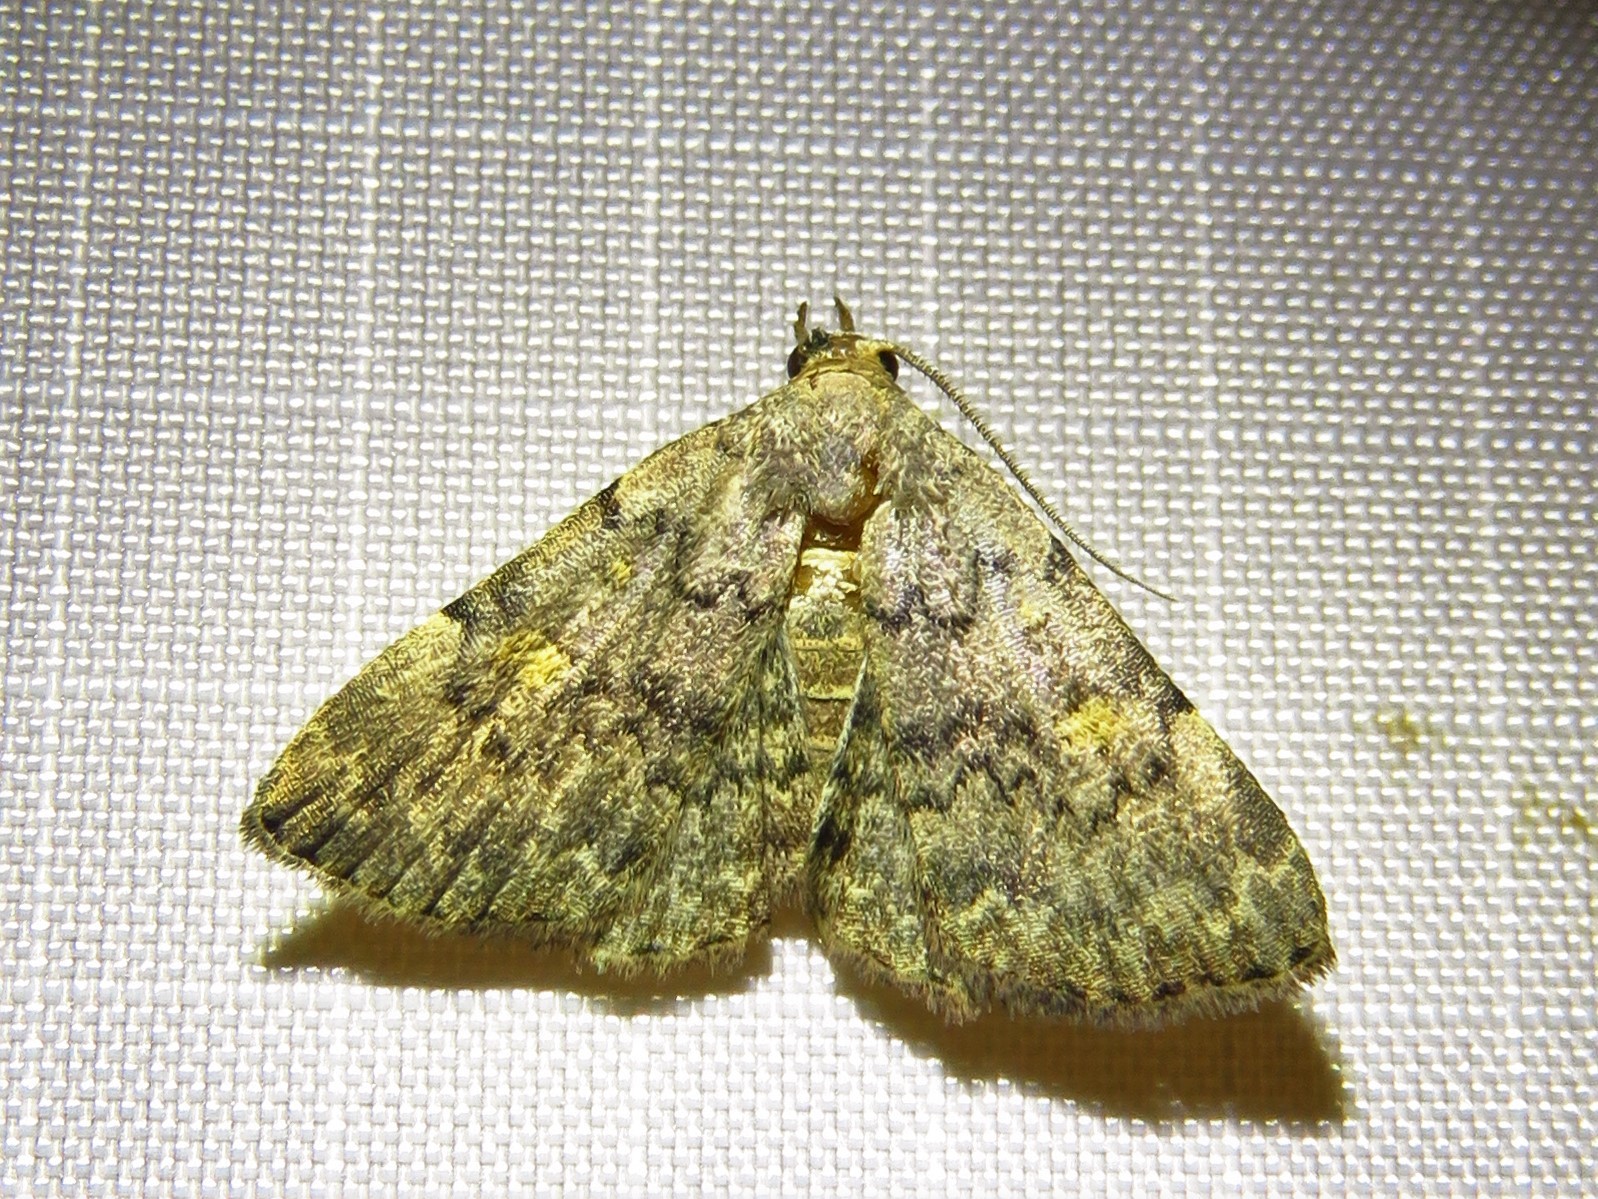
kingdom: Animalia
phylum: Arthropoda
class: Insecta
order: Lepidoptera
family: Erebidae
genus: Idia
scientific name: Idia aemula
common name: Common idia moth
